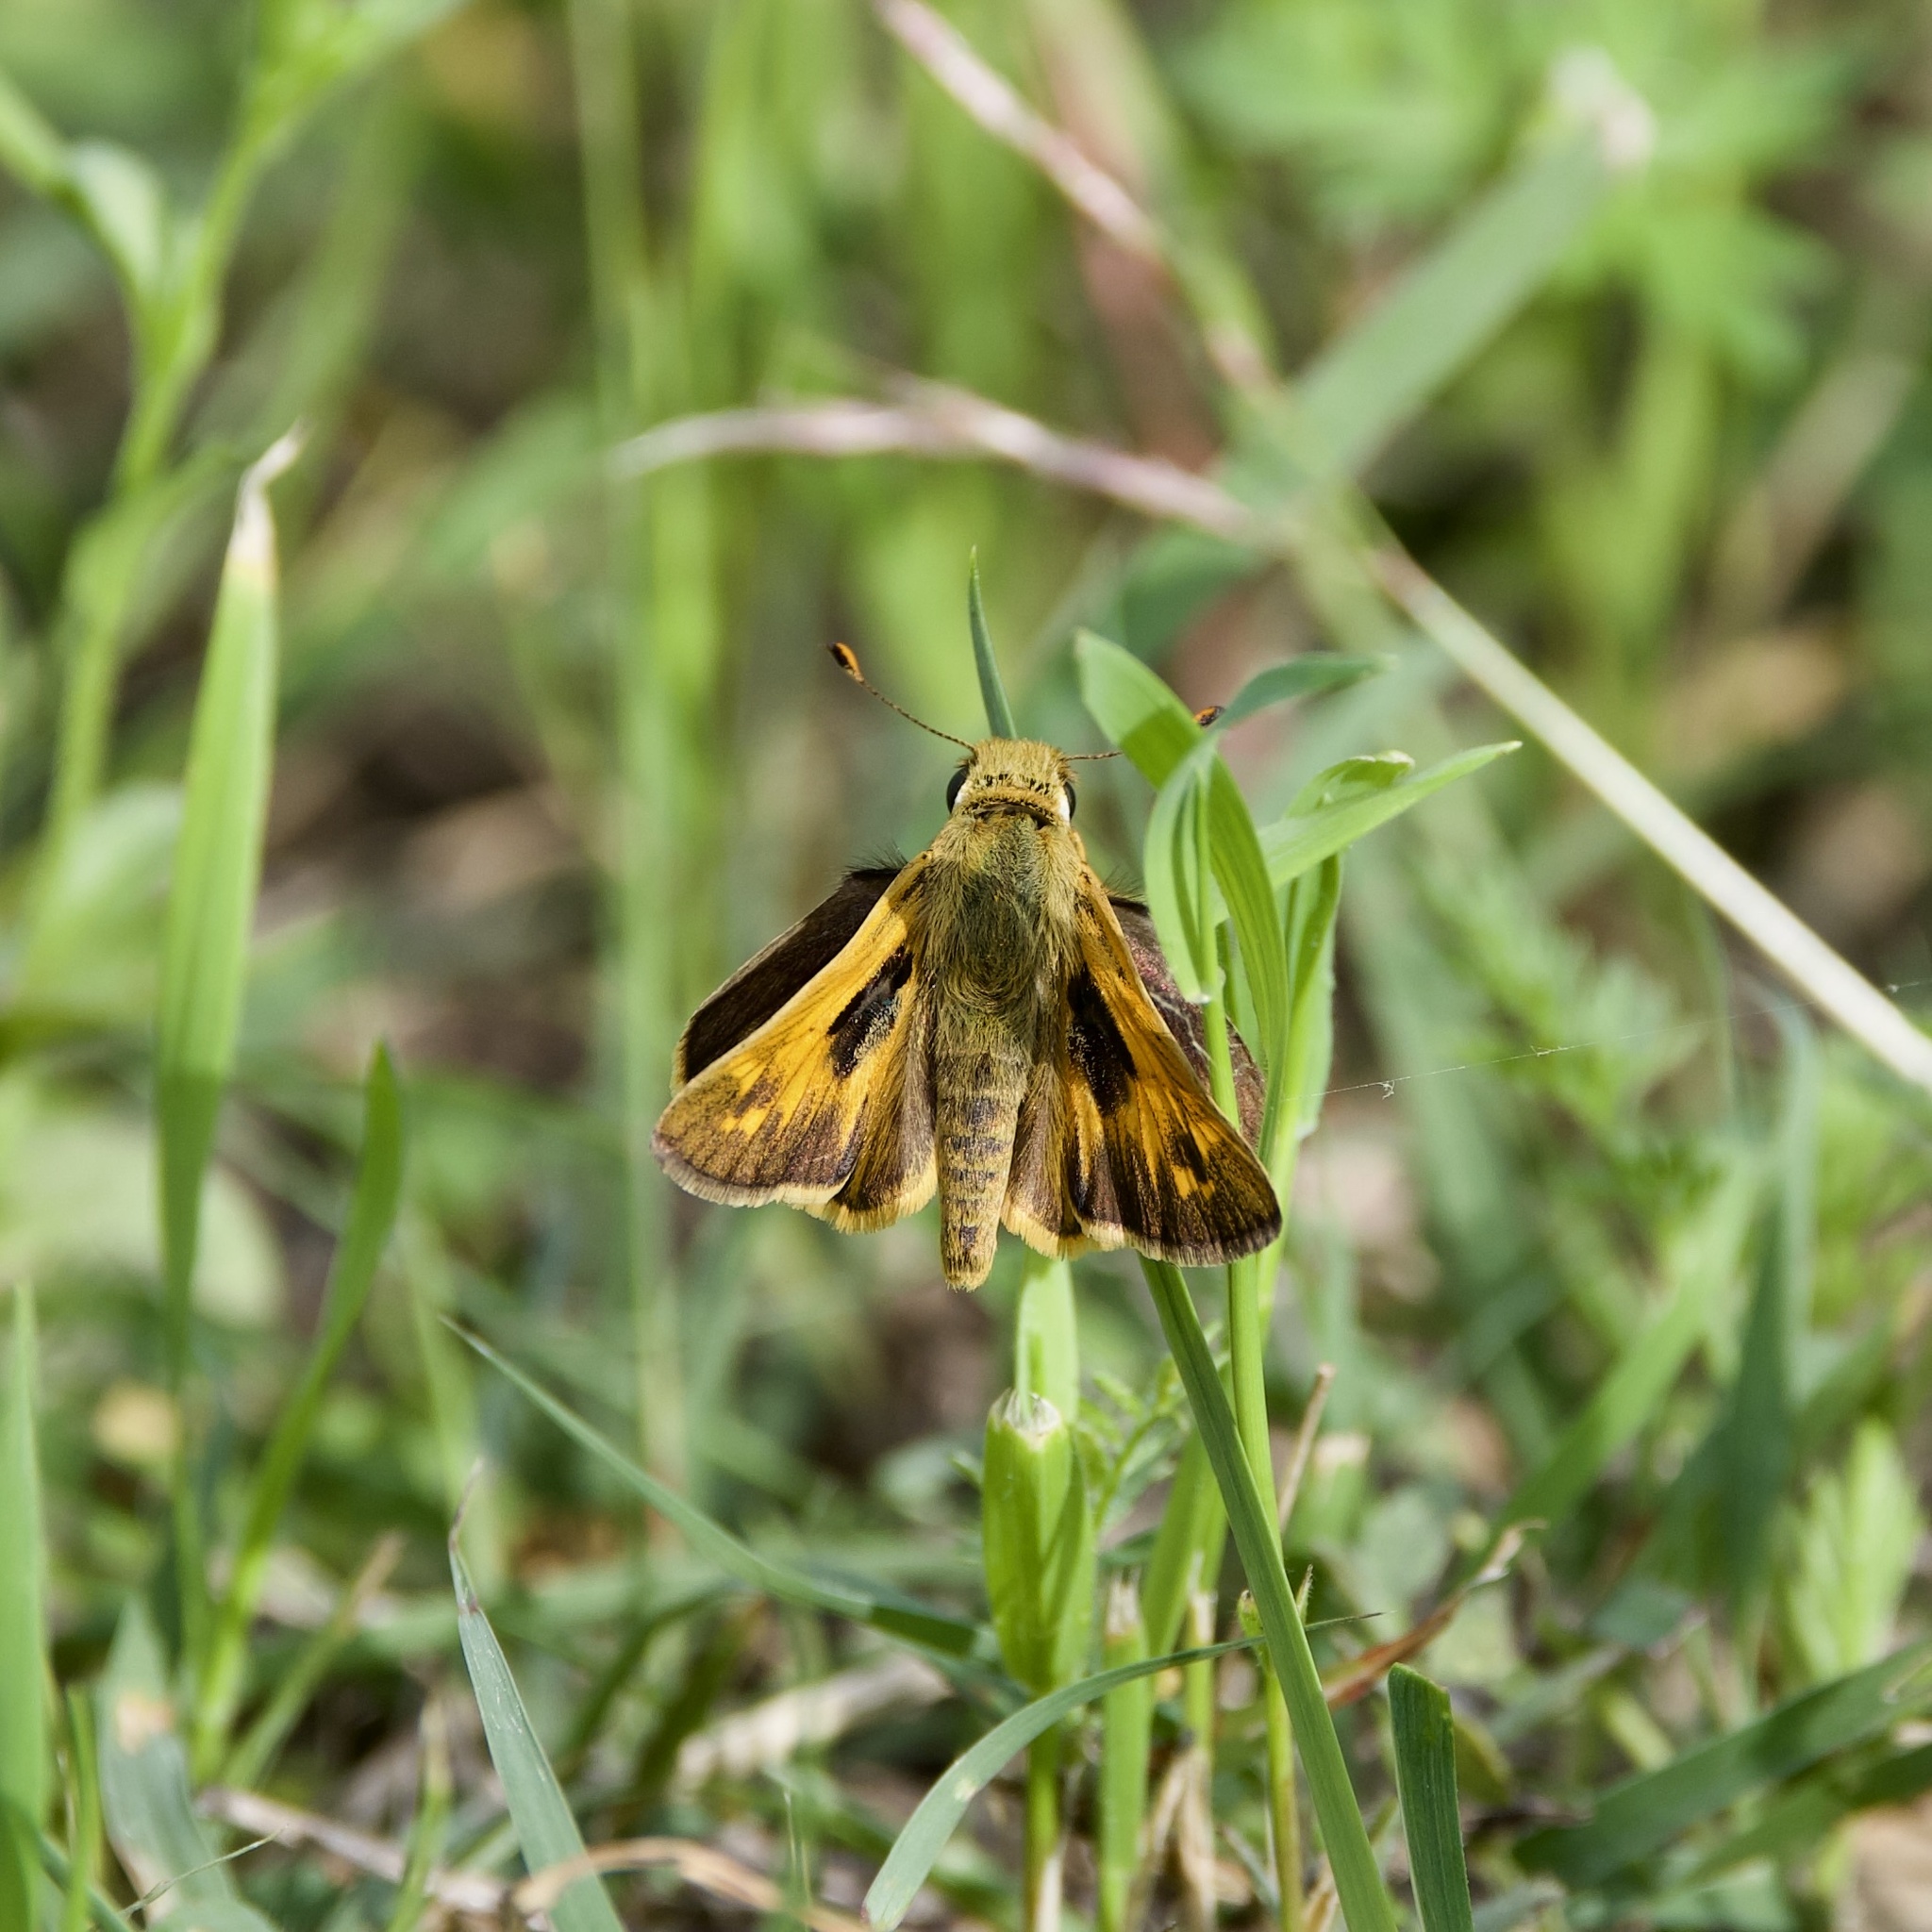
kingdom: Animalia
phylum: Arthropoda
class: Insecta
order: Lepidoptera
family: Hesperiidae
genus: Atalopedes
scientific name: Atalopedes
